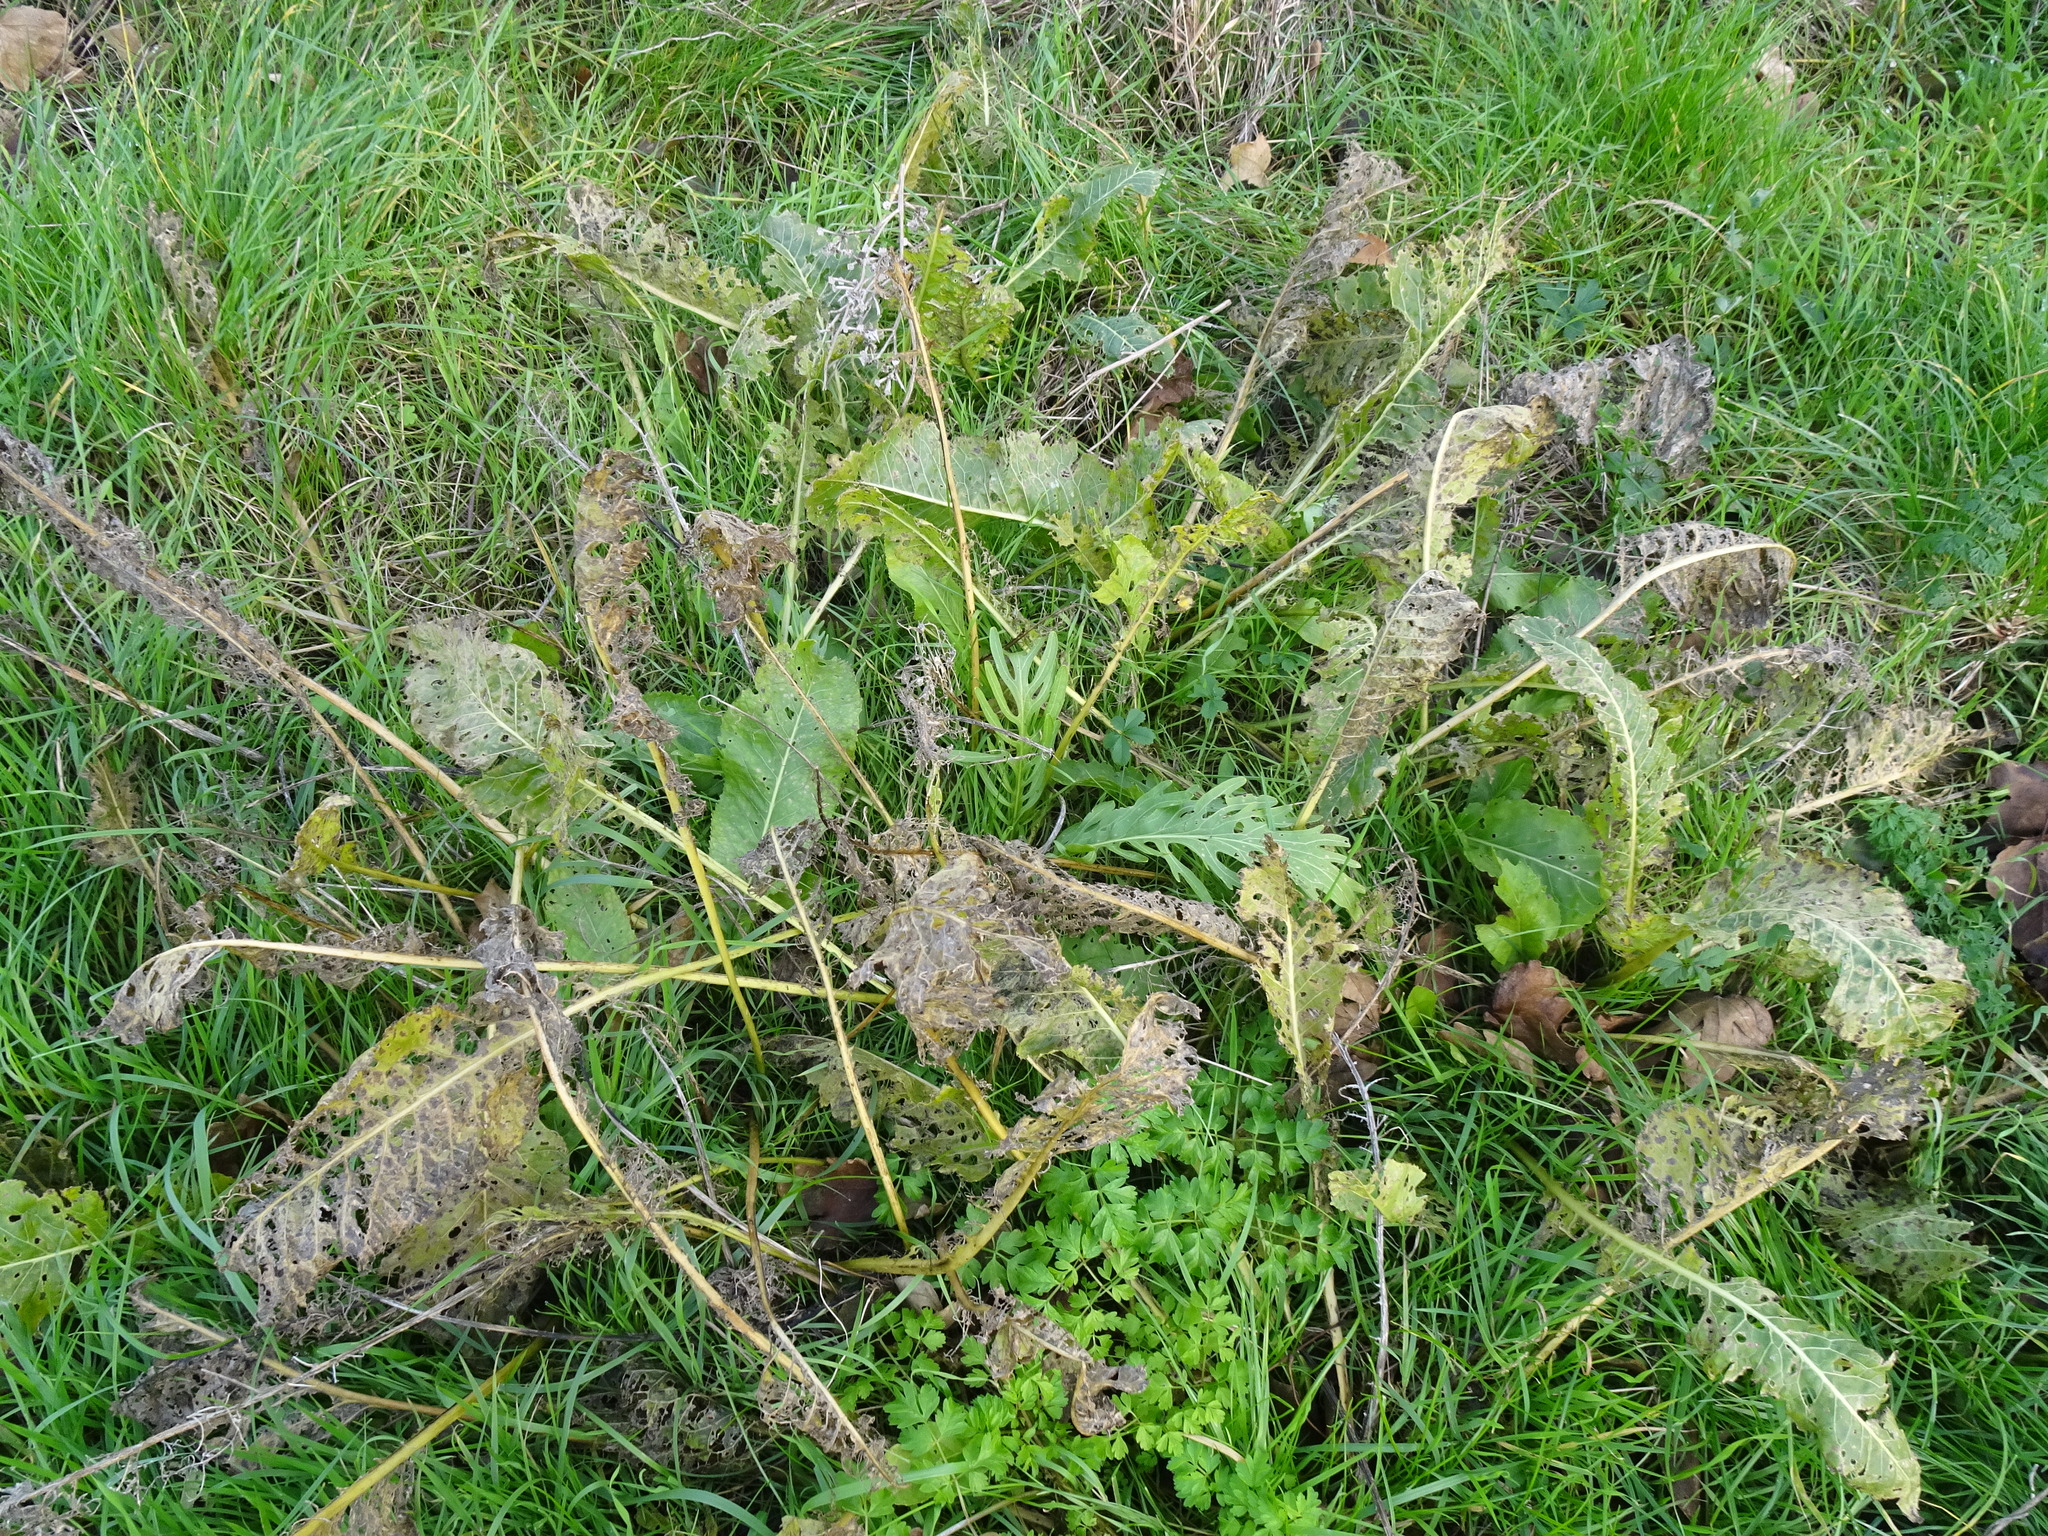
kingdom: Plantae
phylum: Tracheophyta
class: Magnoliopsida
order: Brassicales
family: Brassicaceae
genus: Armoracia
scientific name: Armoracia rusticana
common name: Horseradish
